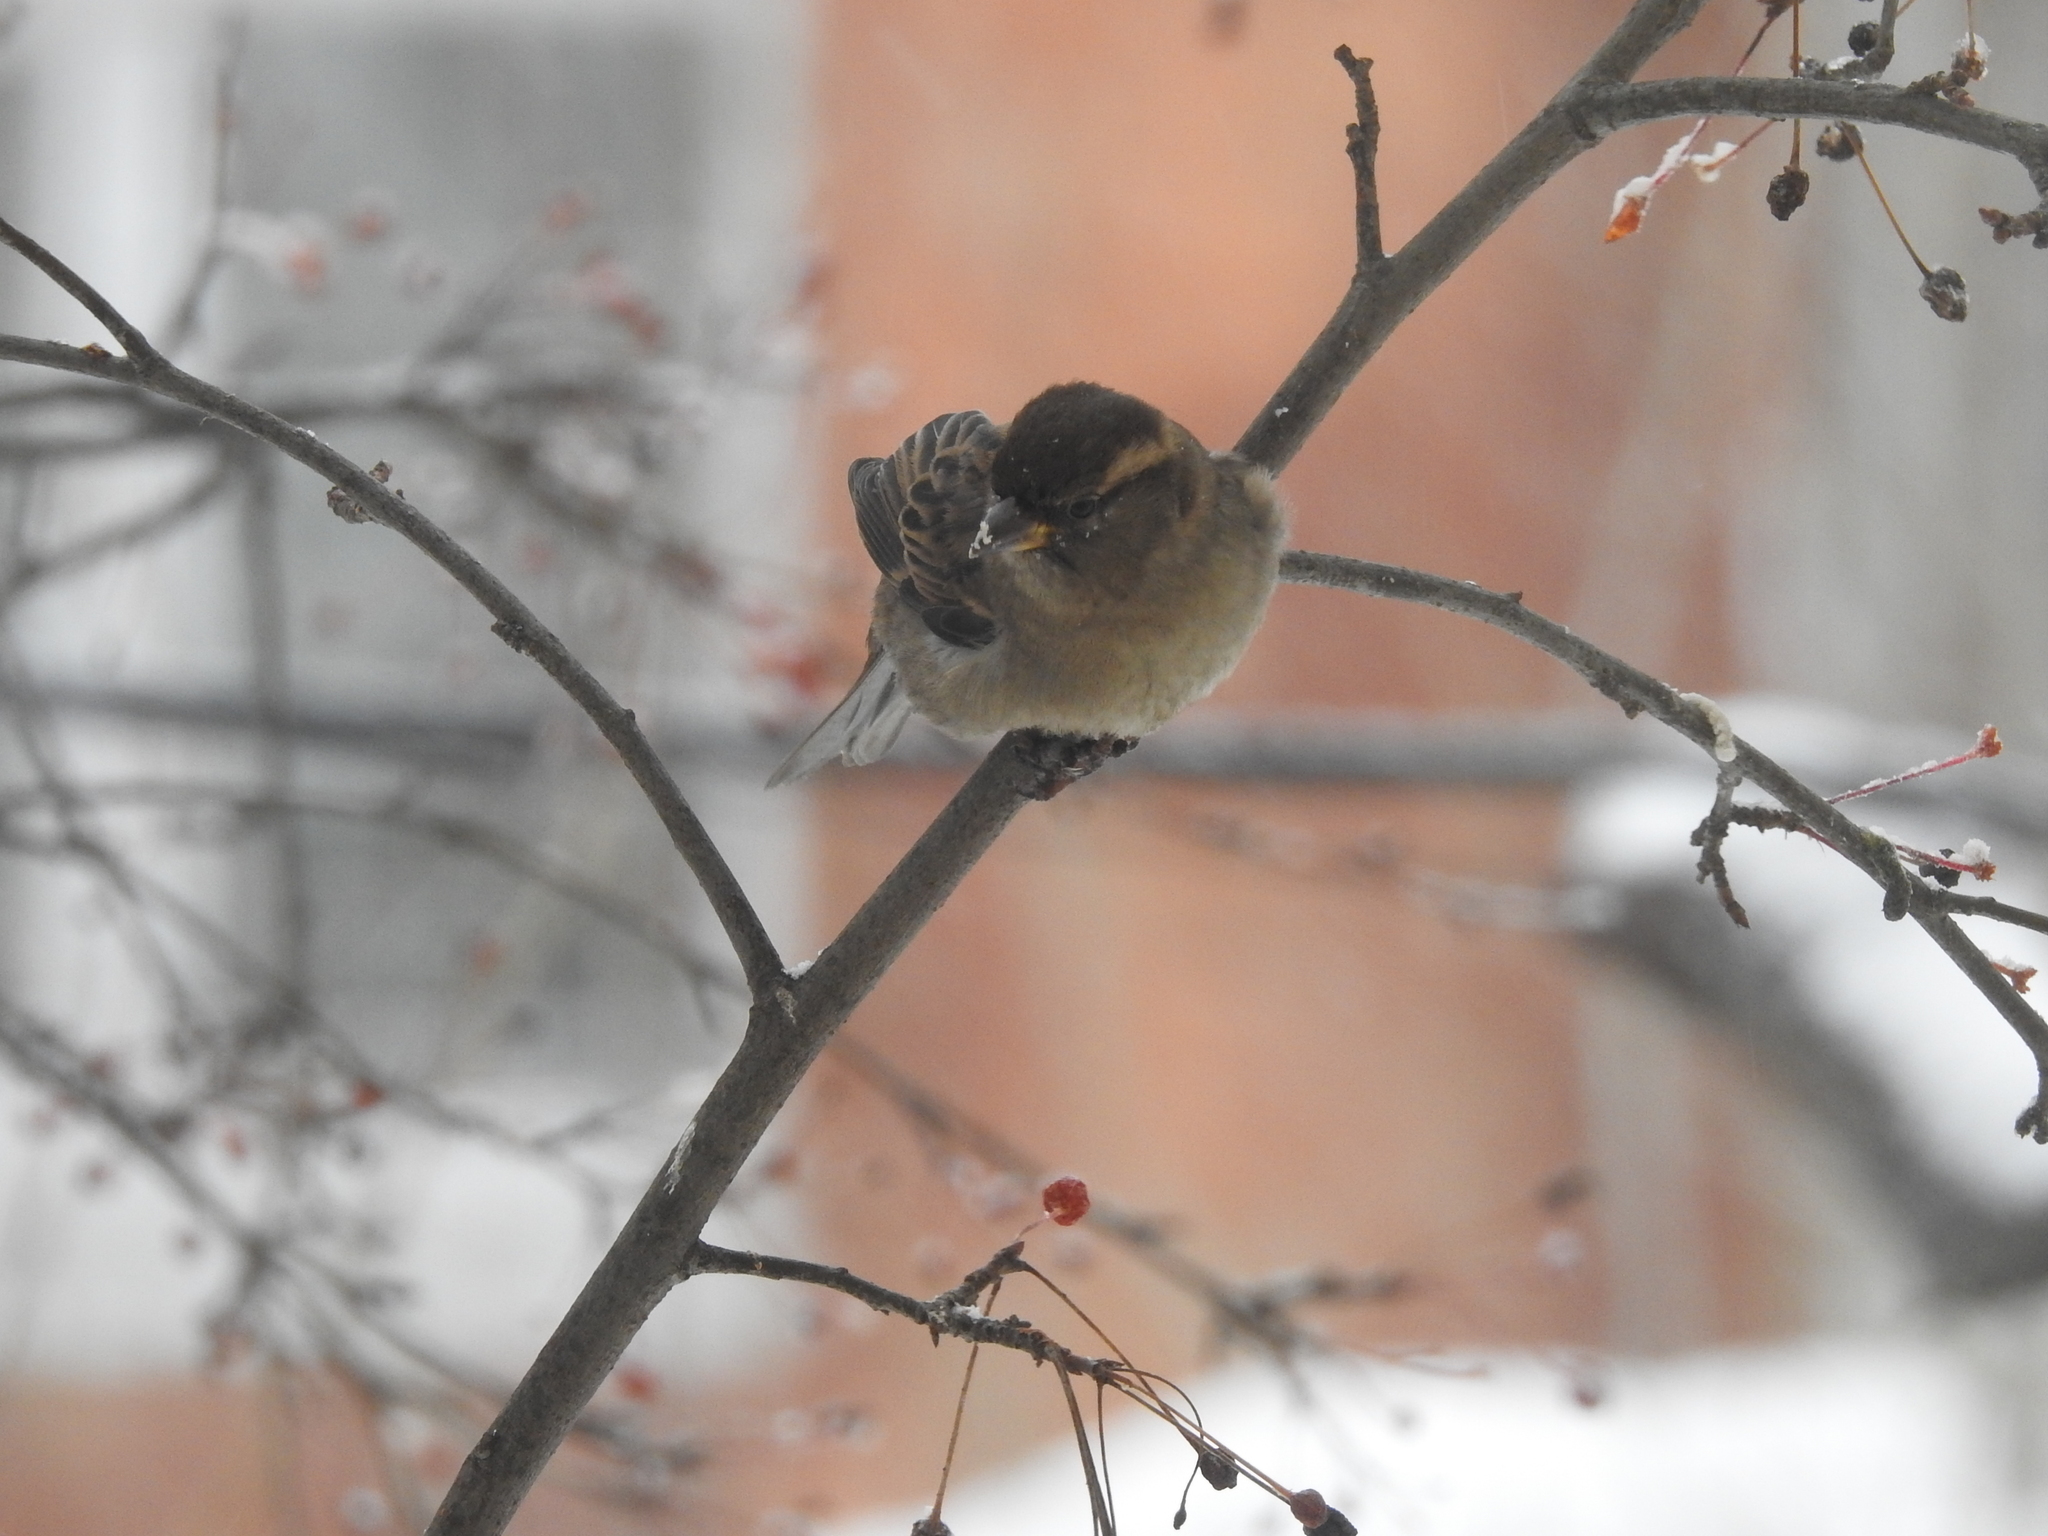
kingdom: Animalia
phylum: Chordata
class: Aves
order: Passeriformes
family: Passeridae
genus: Passer
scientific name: Passer domesticus
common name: House sparrow
